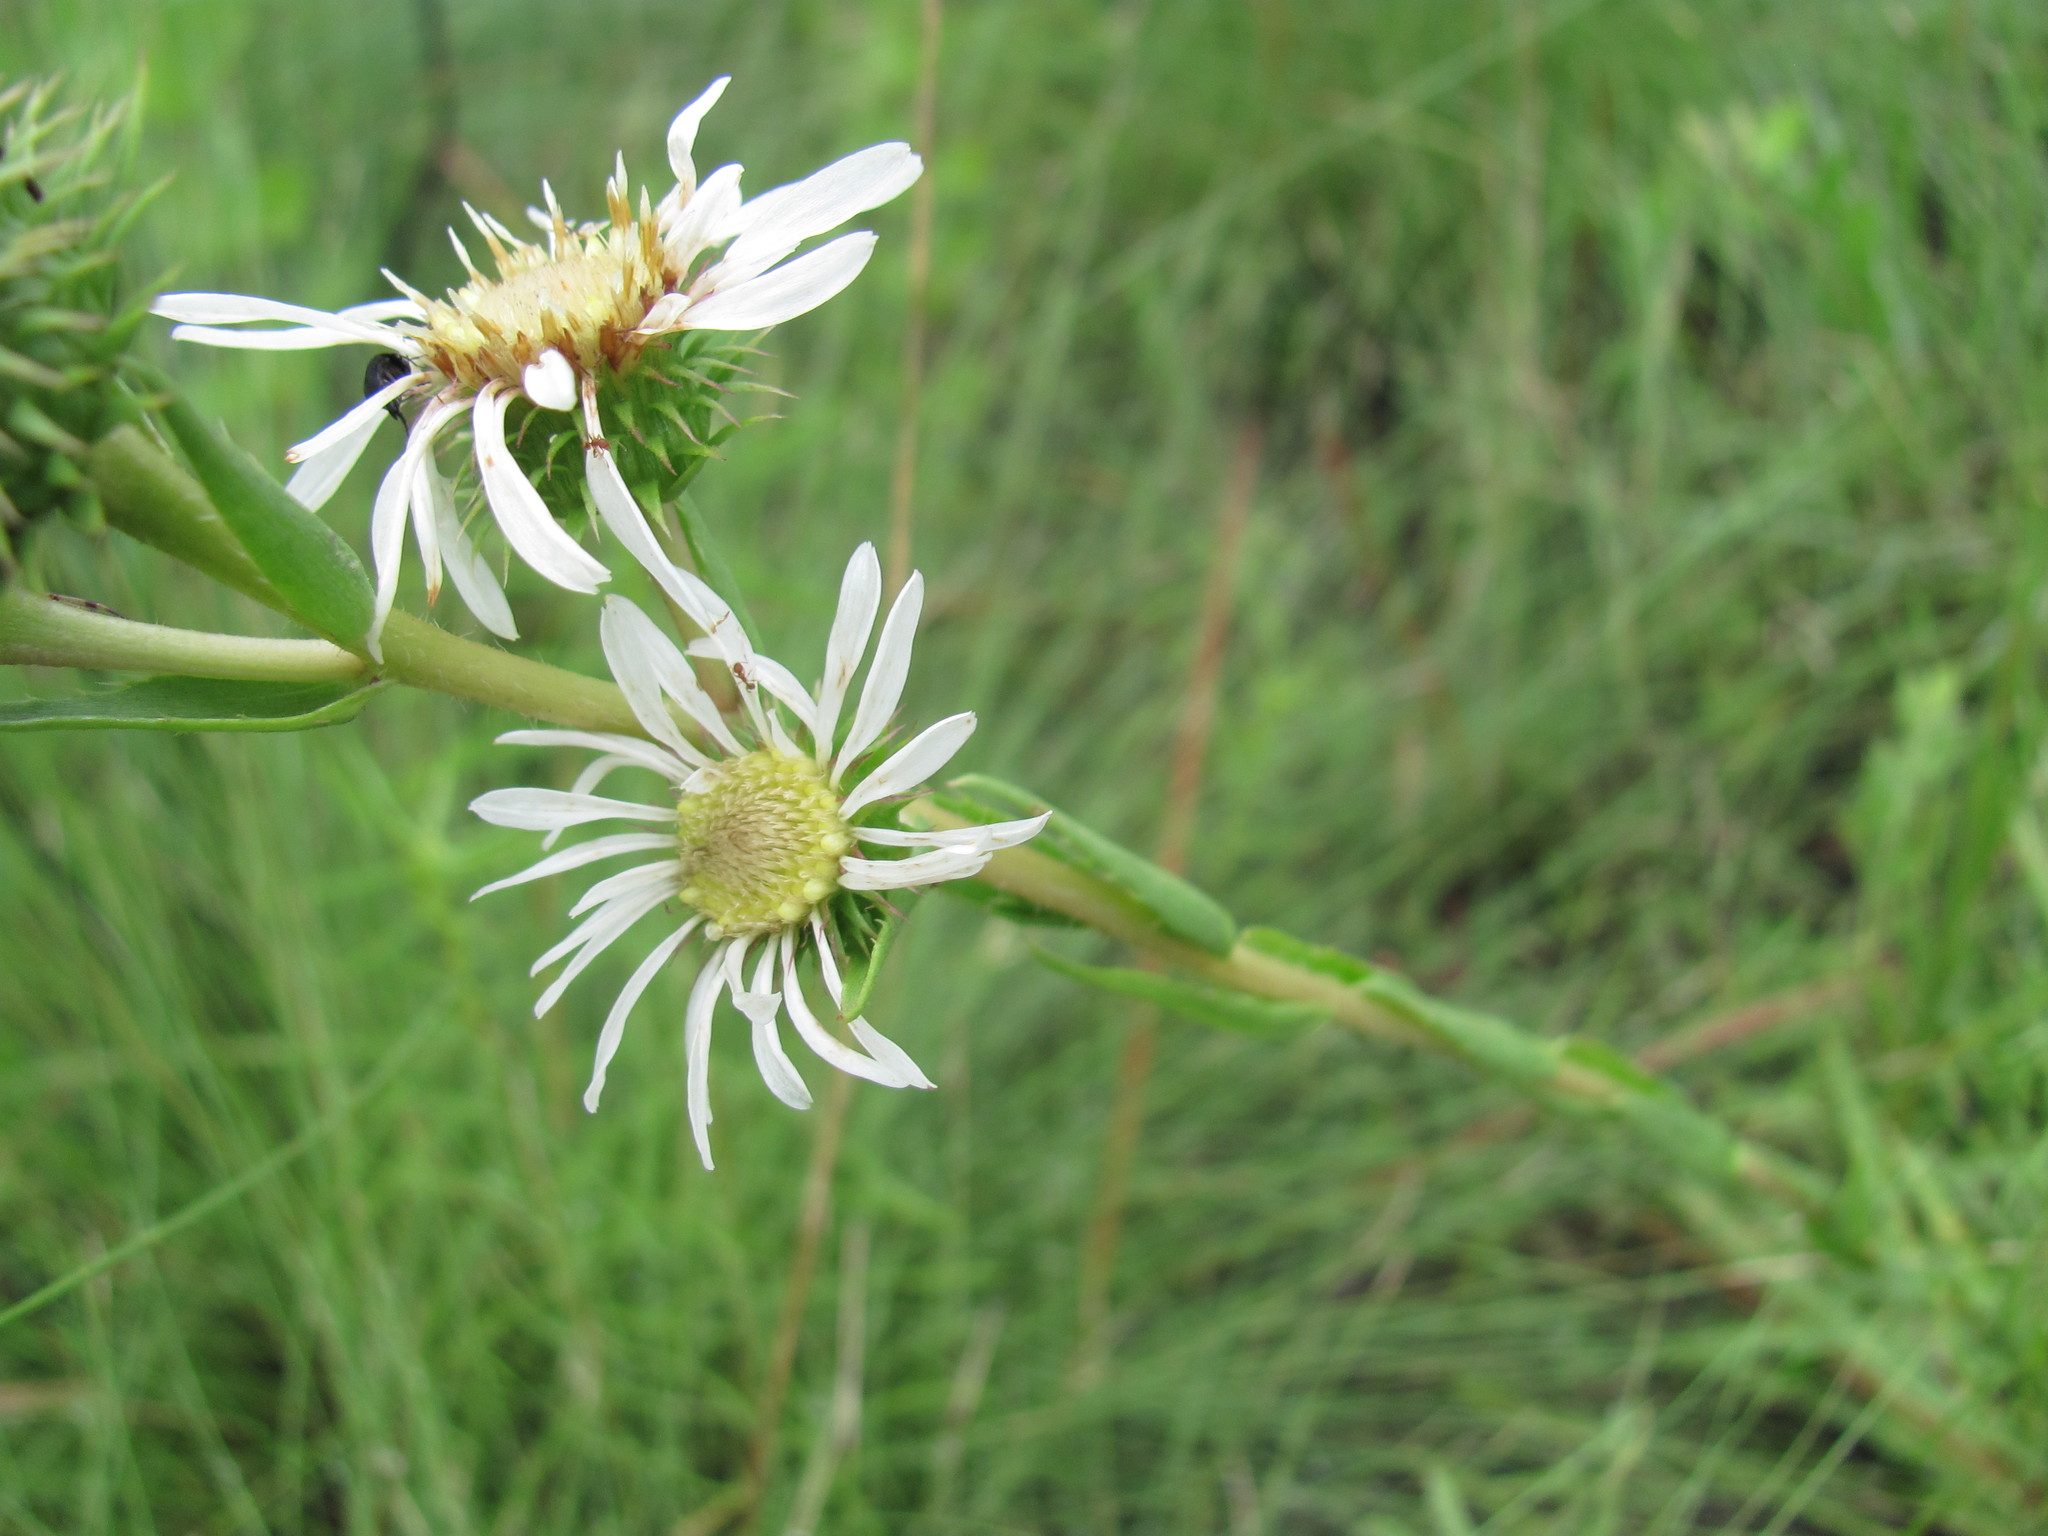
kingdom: Plantae
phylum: Tracheophyta
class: Magnoliopsida
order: Asterales
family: Asteraceae
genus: Eurybia
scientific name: Eurybia eryngiifolia
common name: Thistle-leaf aster
